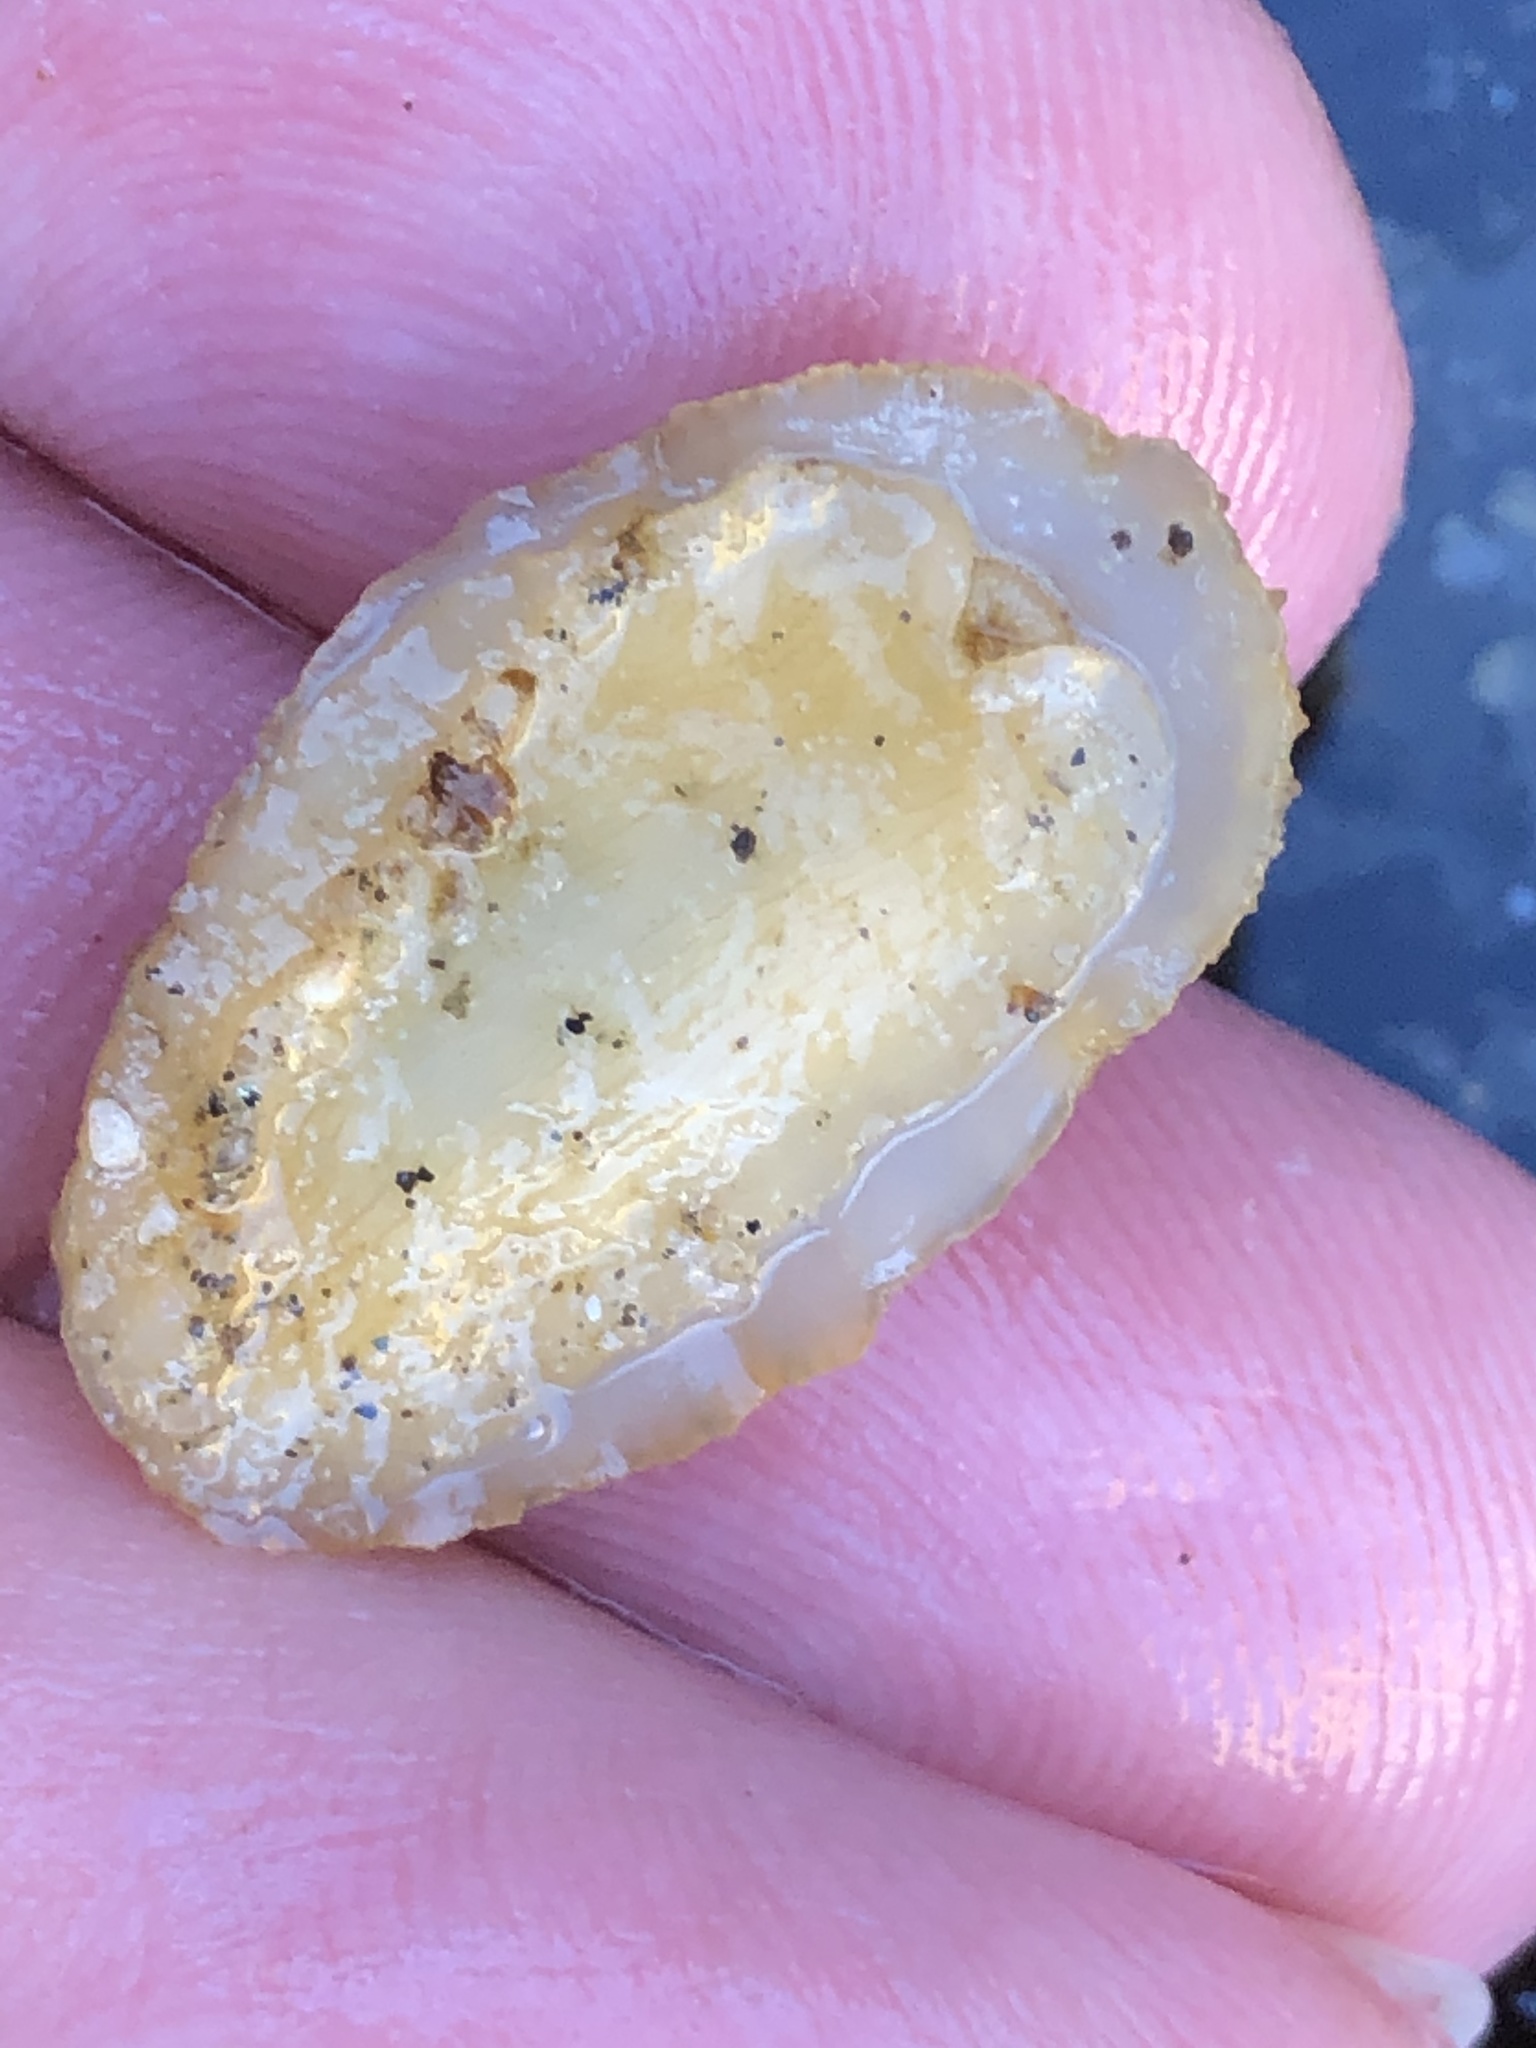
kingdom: Animalia
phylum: Mollusca
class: Gastropoda
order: Lepetellida
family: Fissurellidae
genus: Fissurellidea
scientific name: Fissurellidea bimaculata
